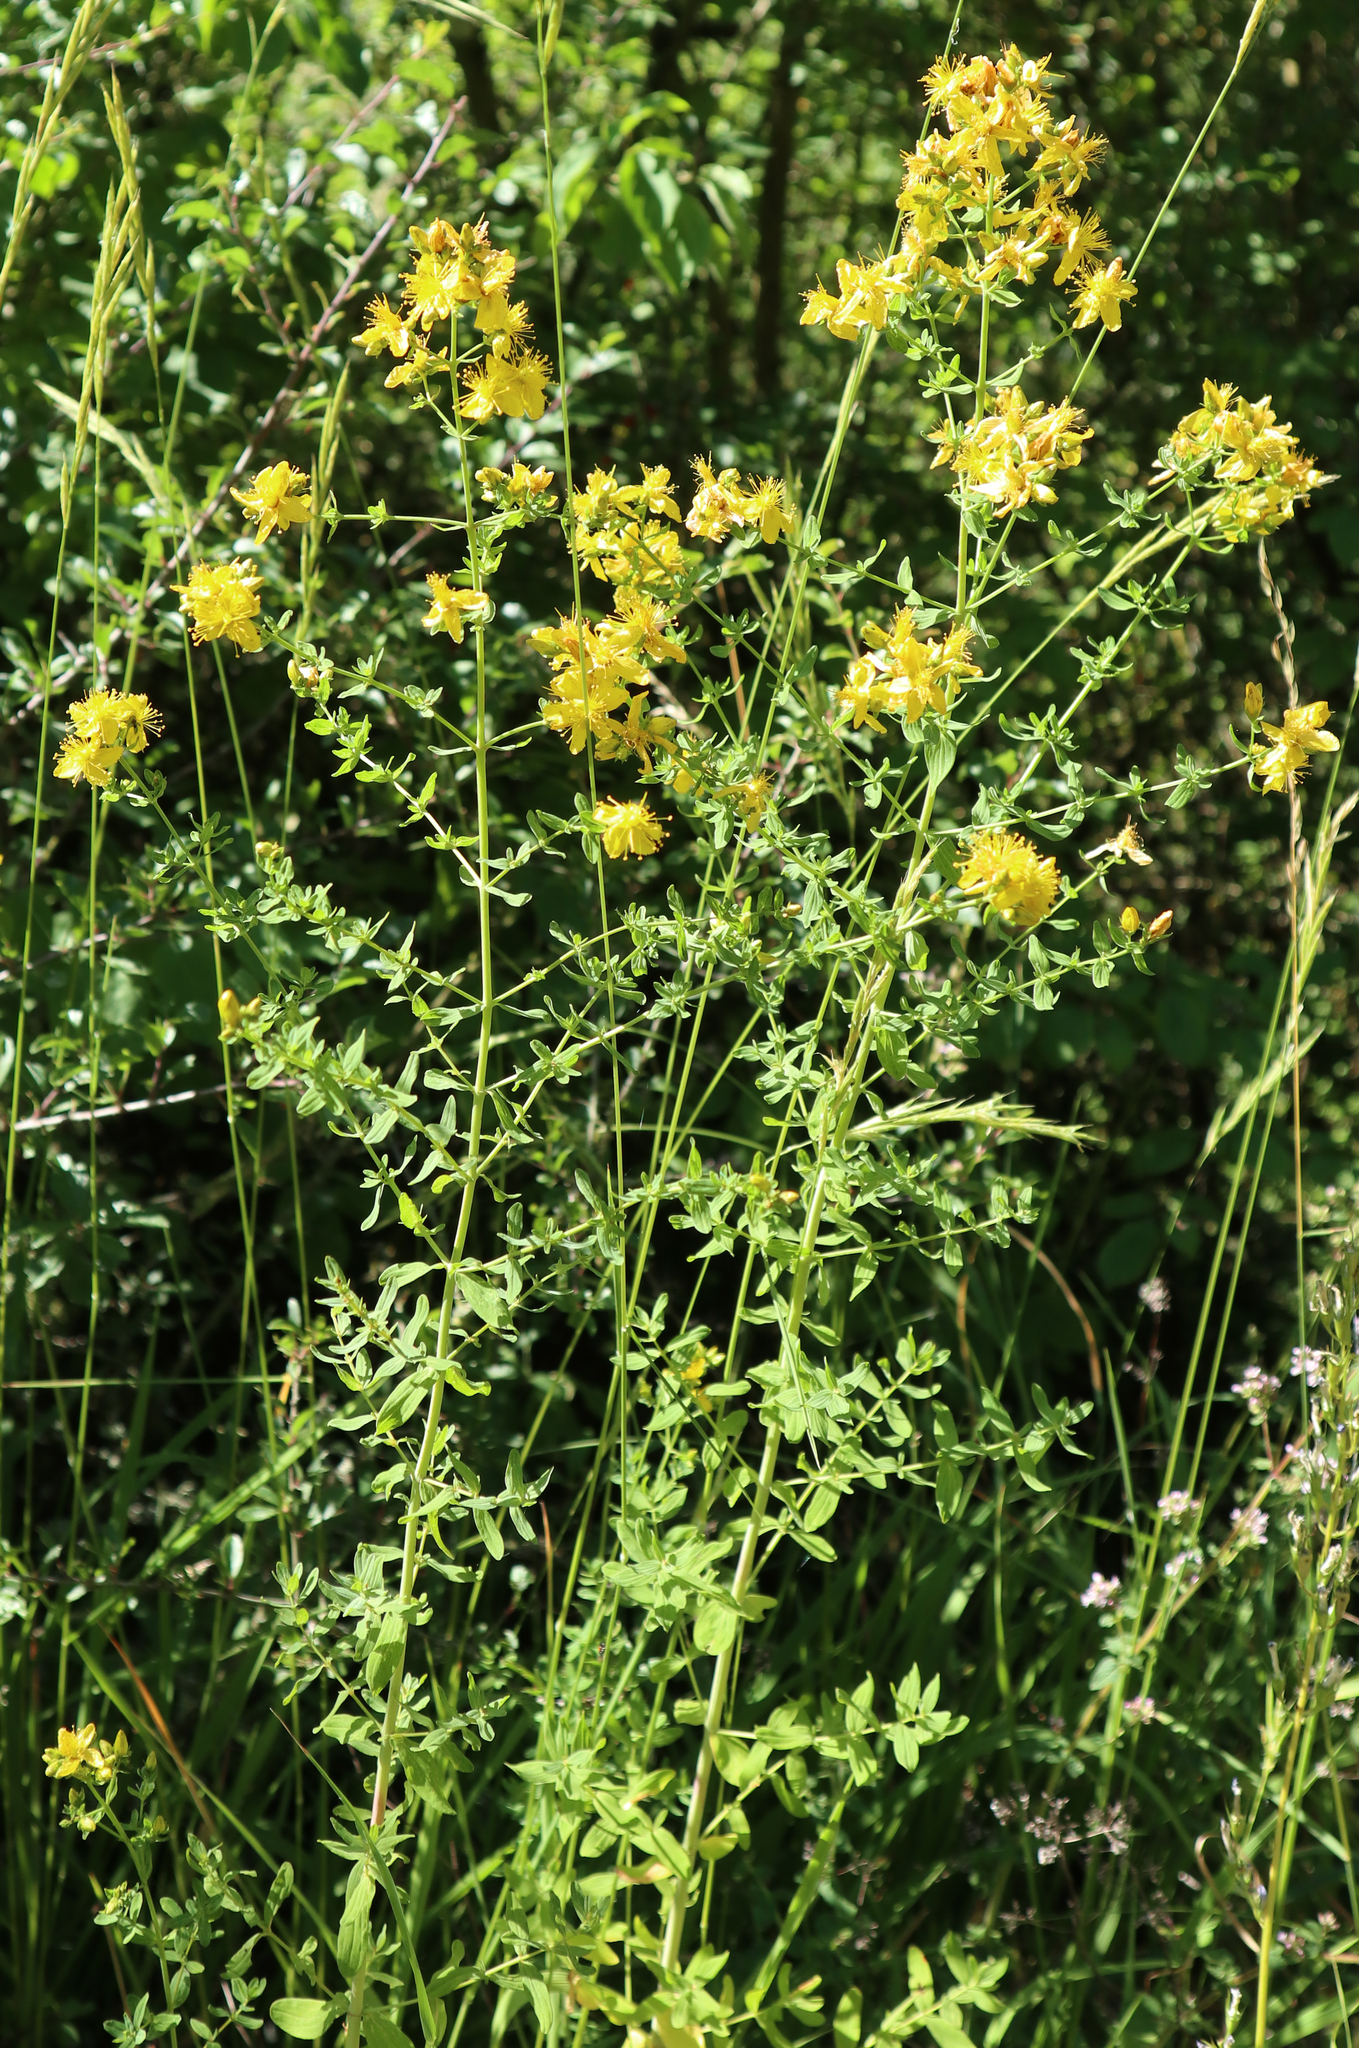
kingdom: Plantae
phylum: Tracheophyta
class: Magnoliopsida
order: Malpighiales
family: Hypericaceae
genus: Hypericum
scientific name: Hypericum perforatum
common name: Common st. johnswort
